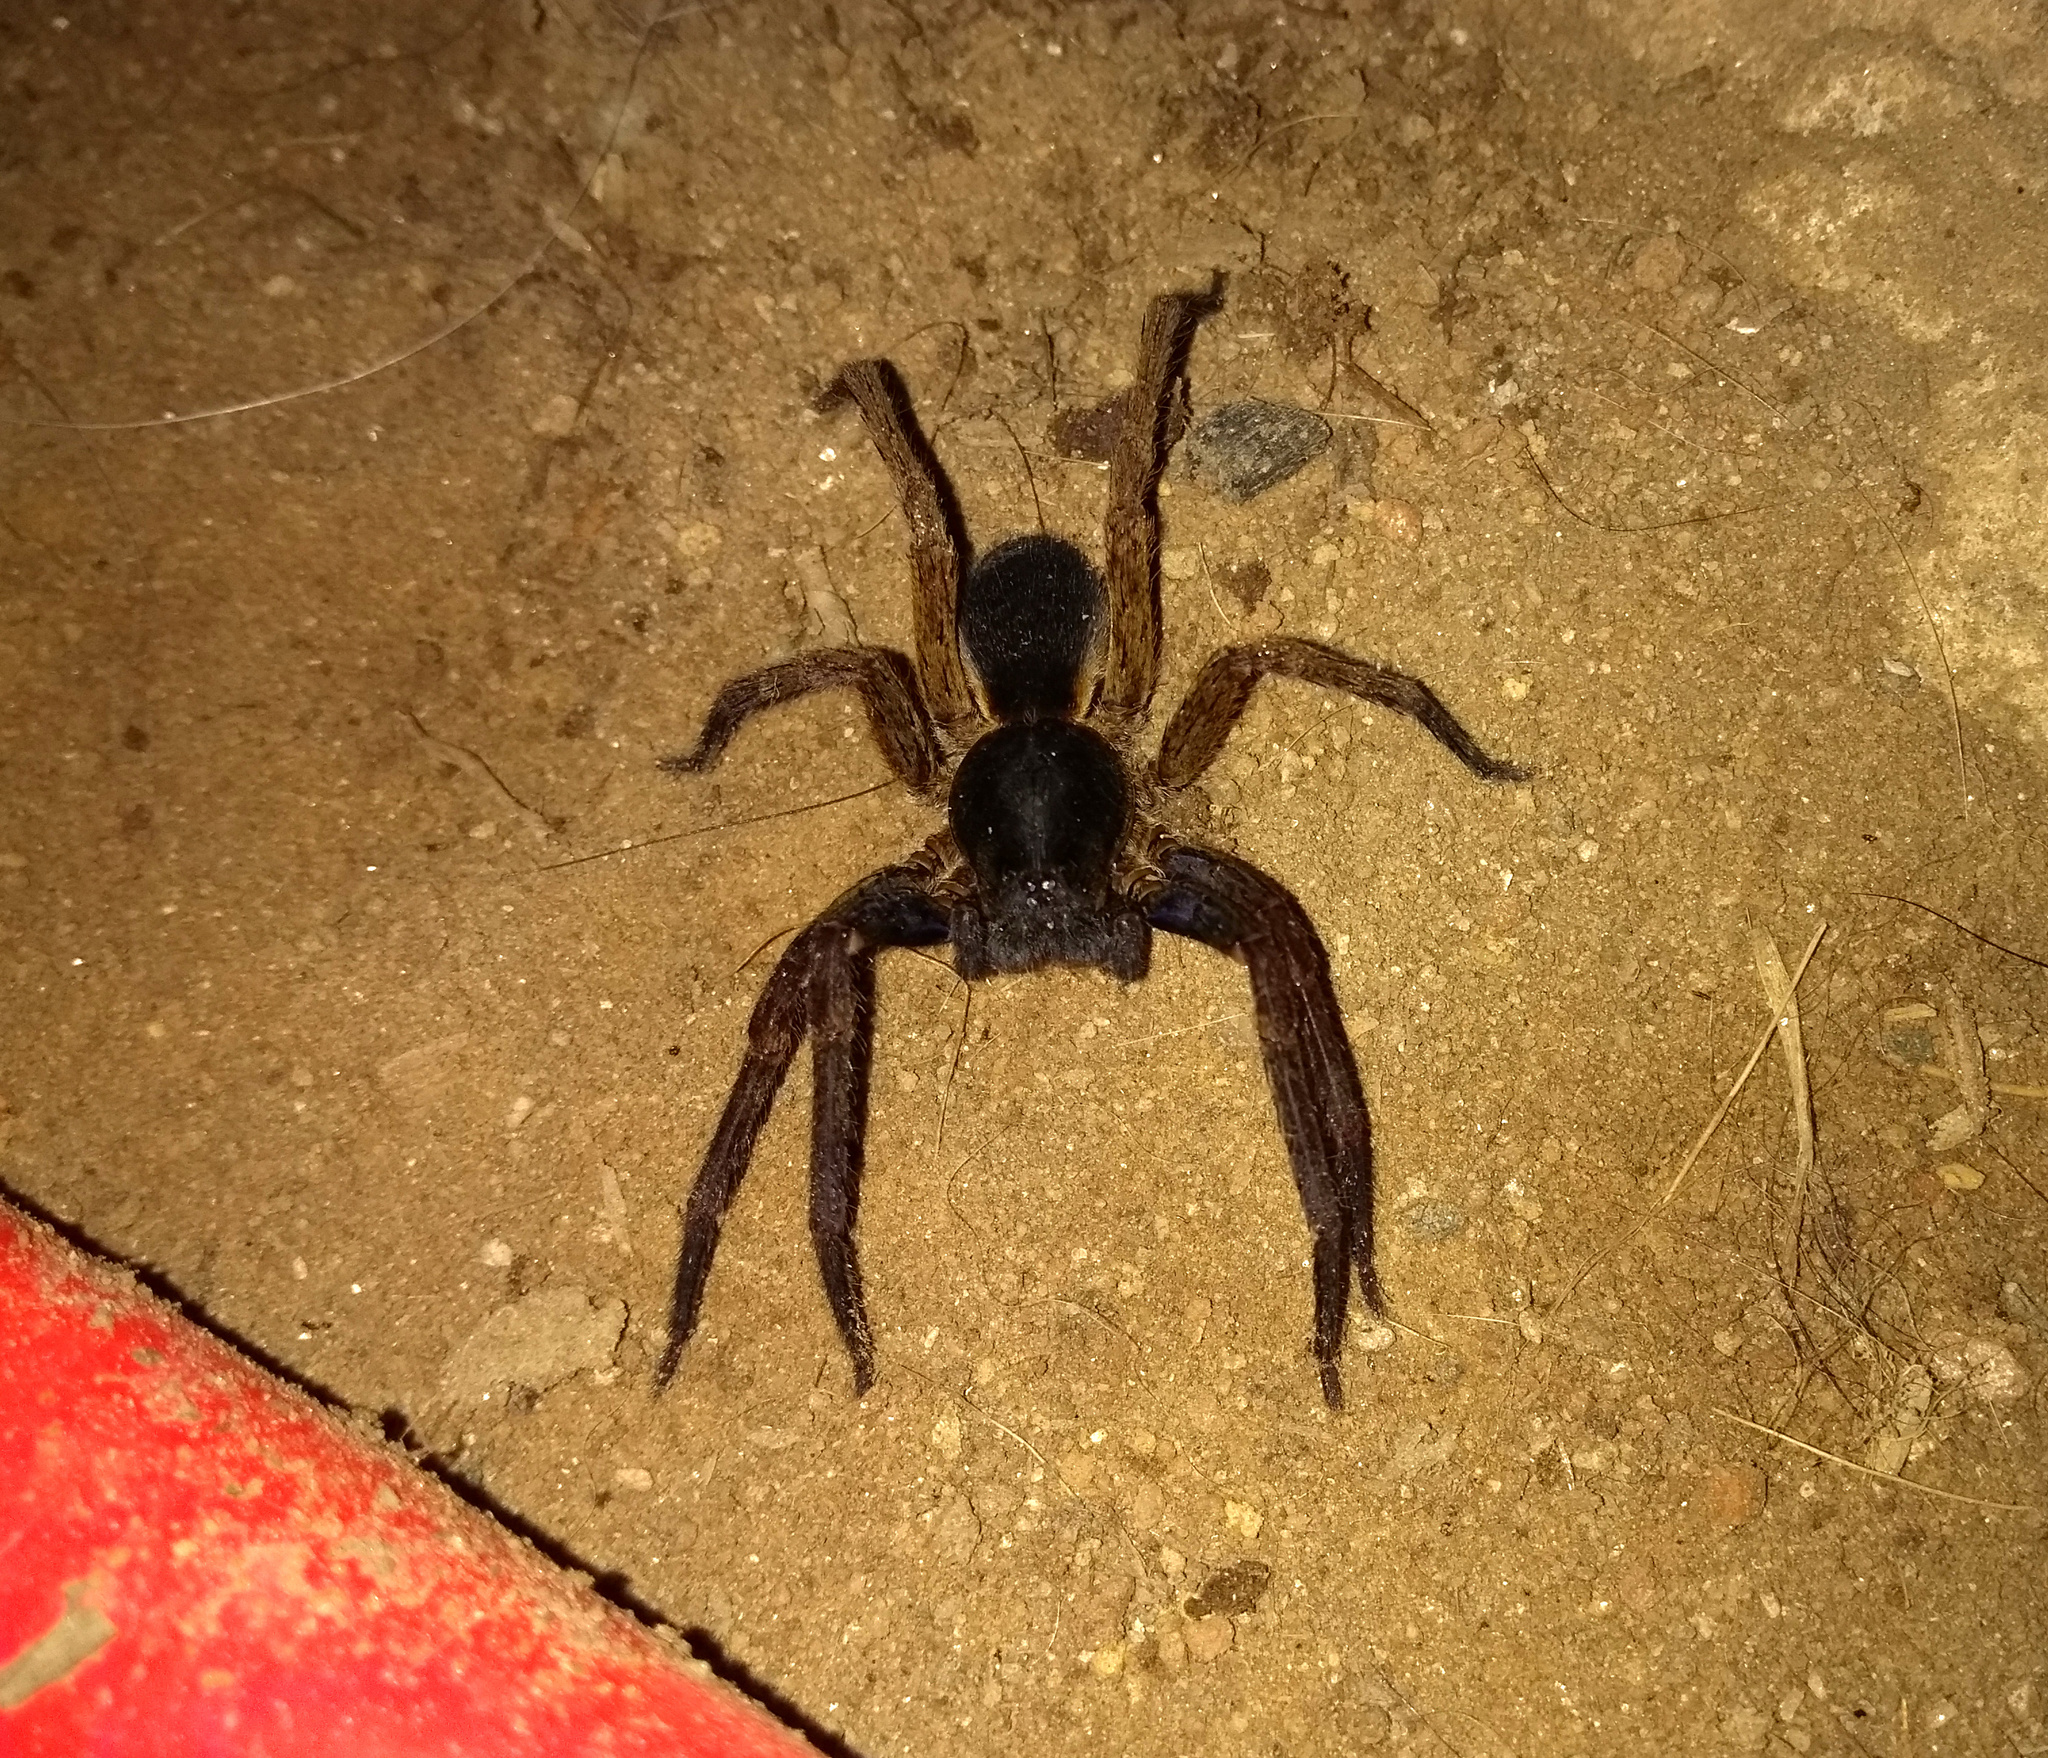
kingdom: Animalia
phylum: Arthropoda
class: Arachnida
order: Araneae
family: Ctenidae
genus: Ctenus
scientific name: Ctenus medius
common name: Wandering spiders
